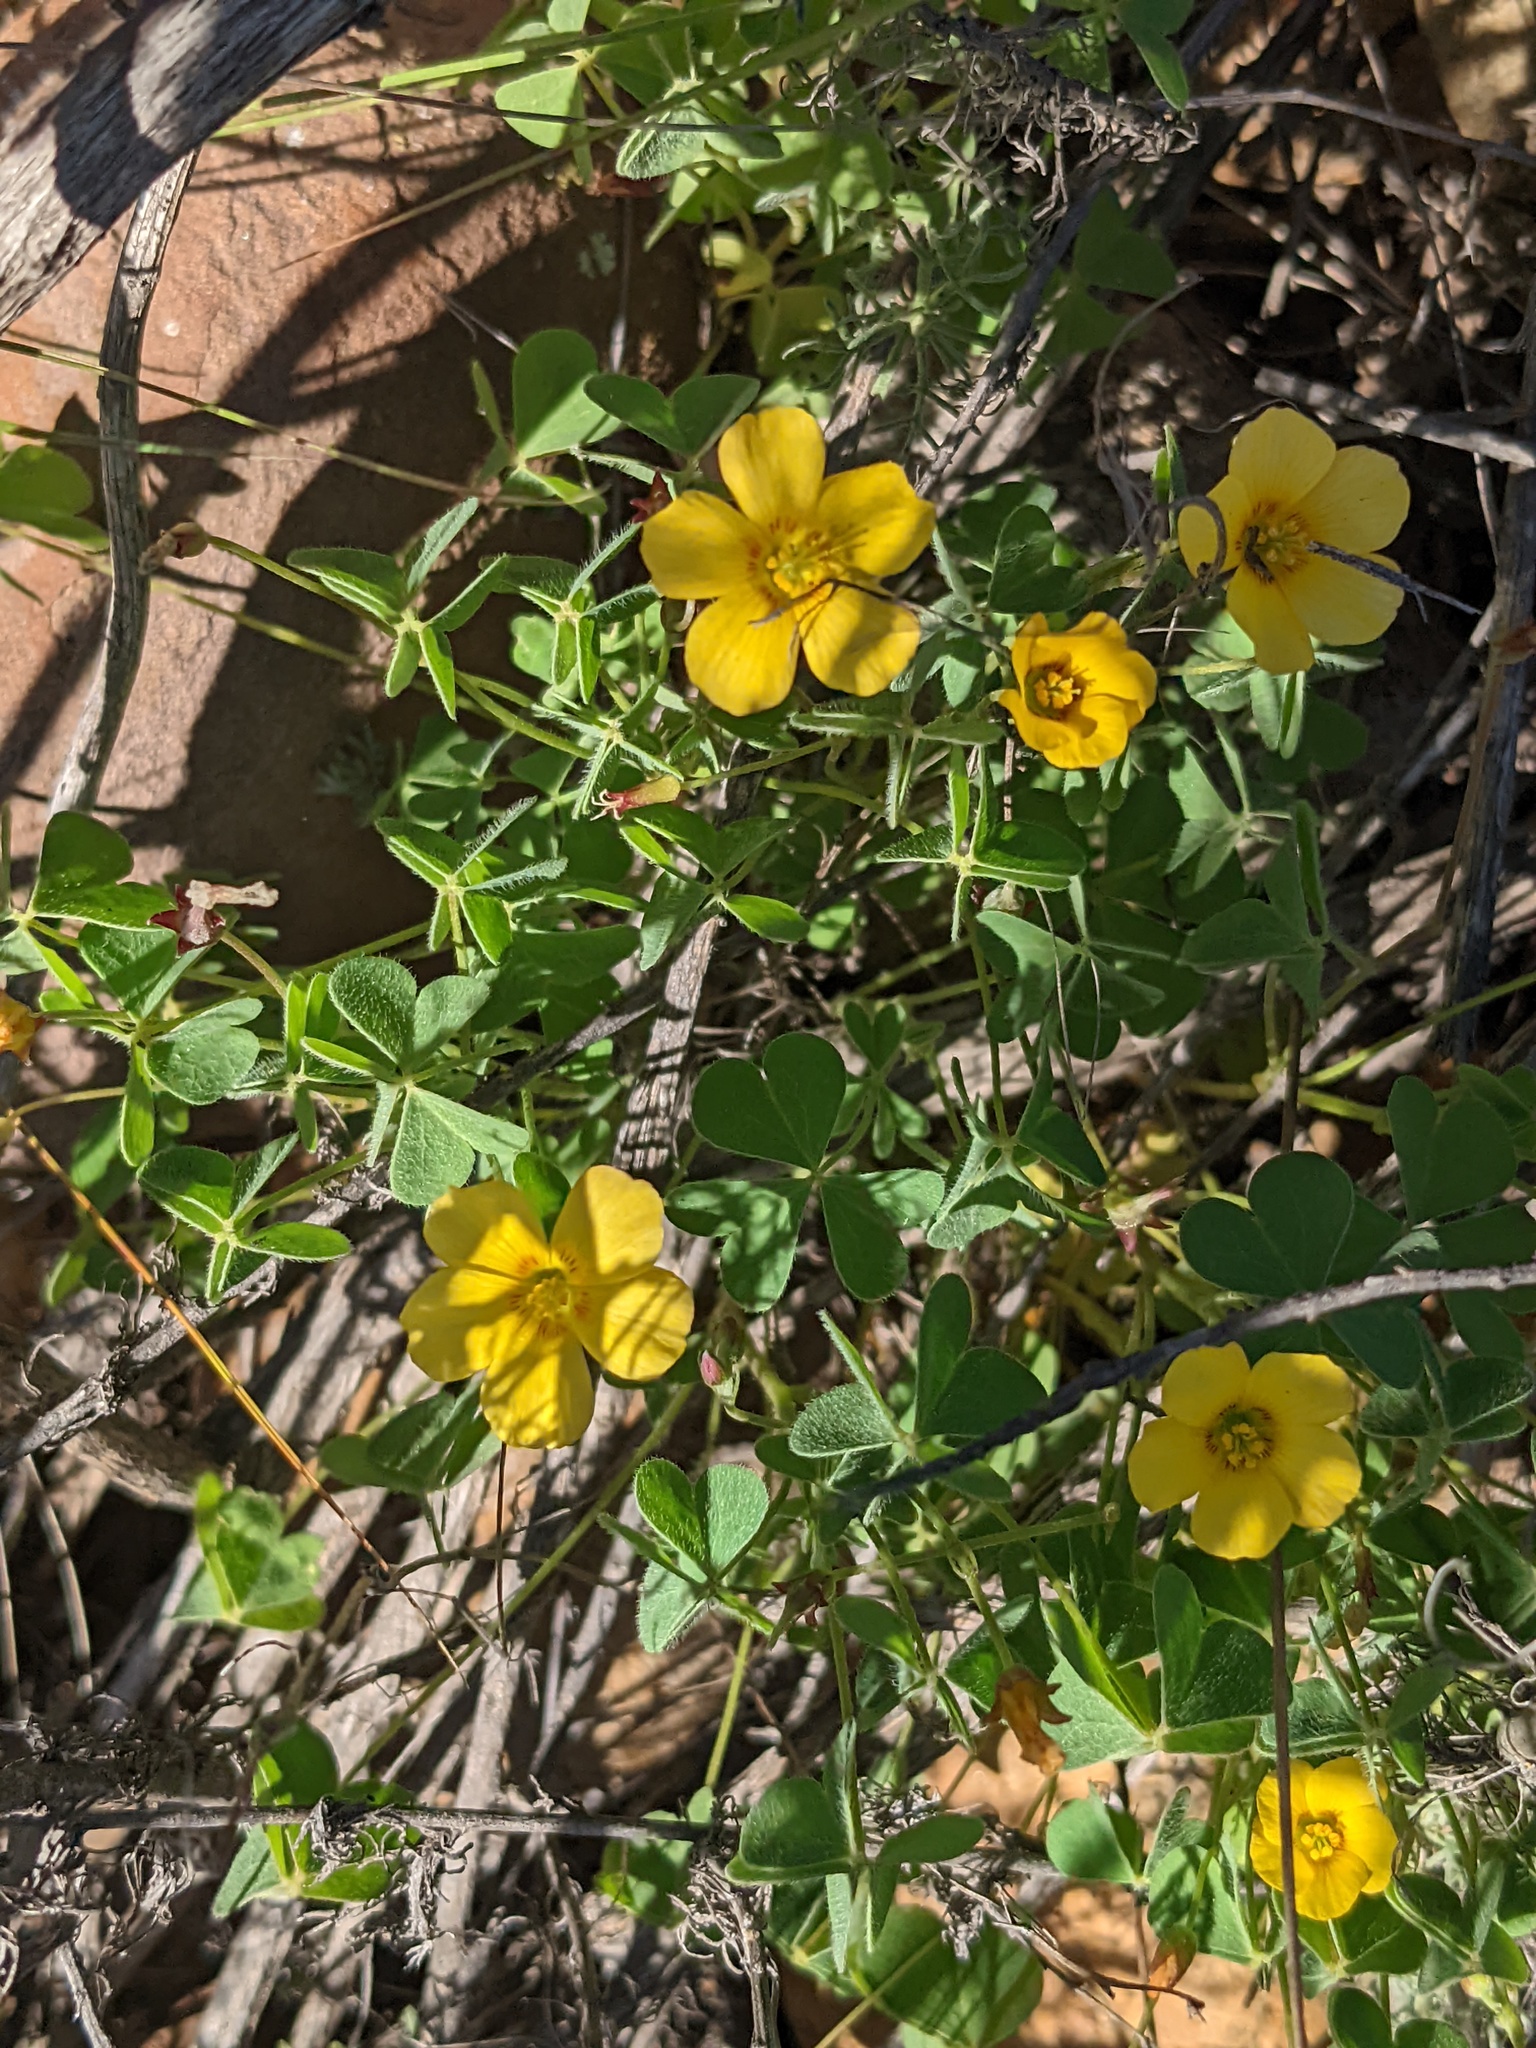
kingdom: Plantae
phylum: Tracheophyta
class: Magnoliopsida
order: Oxalidales
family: Oxalidaceae
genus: Oxalis
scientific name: Oxalis californica
